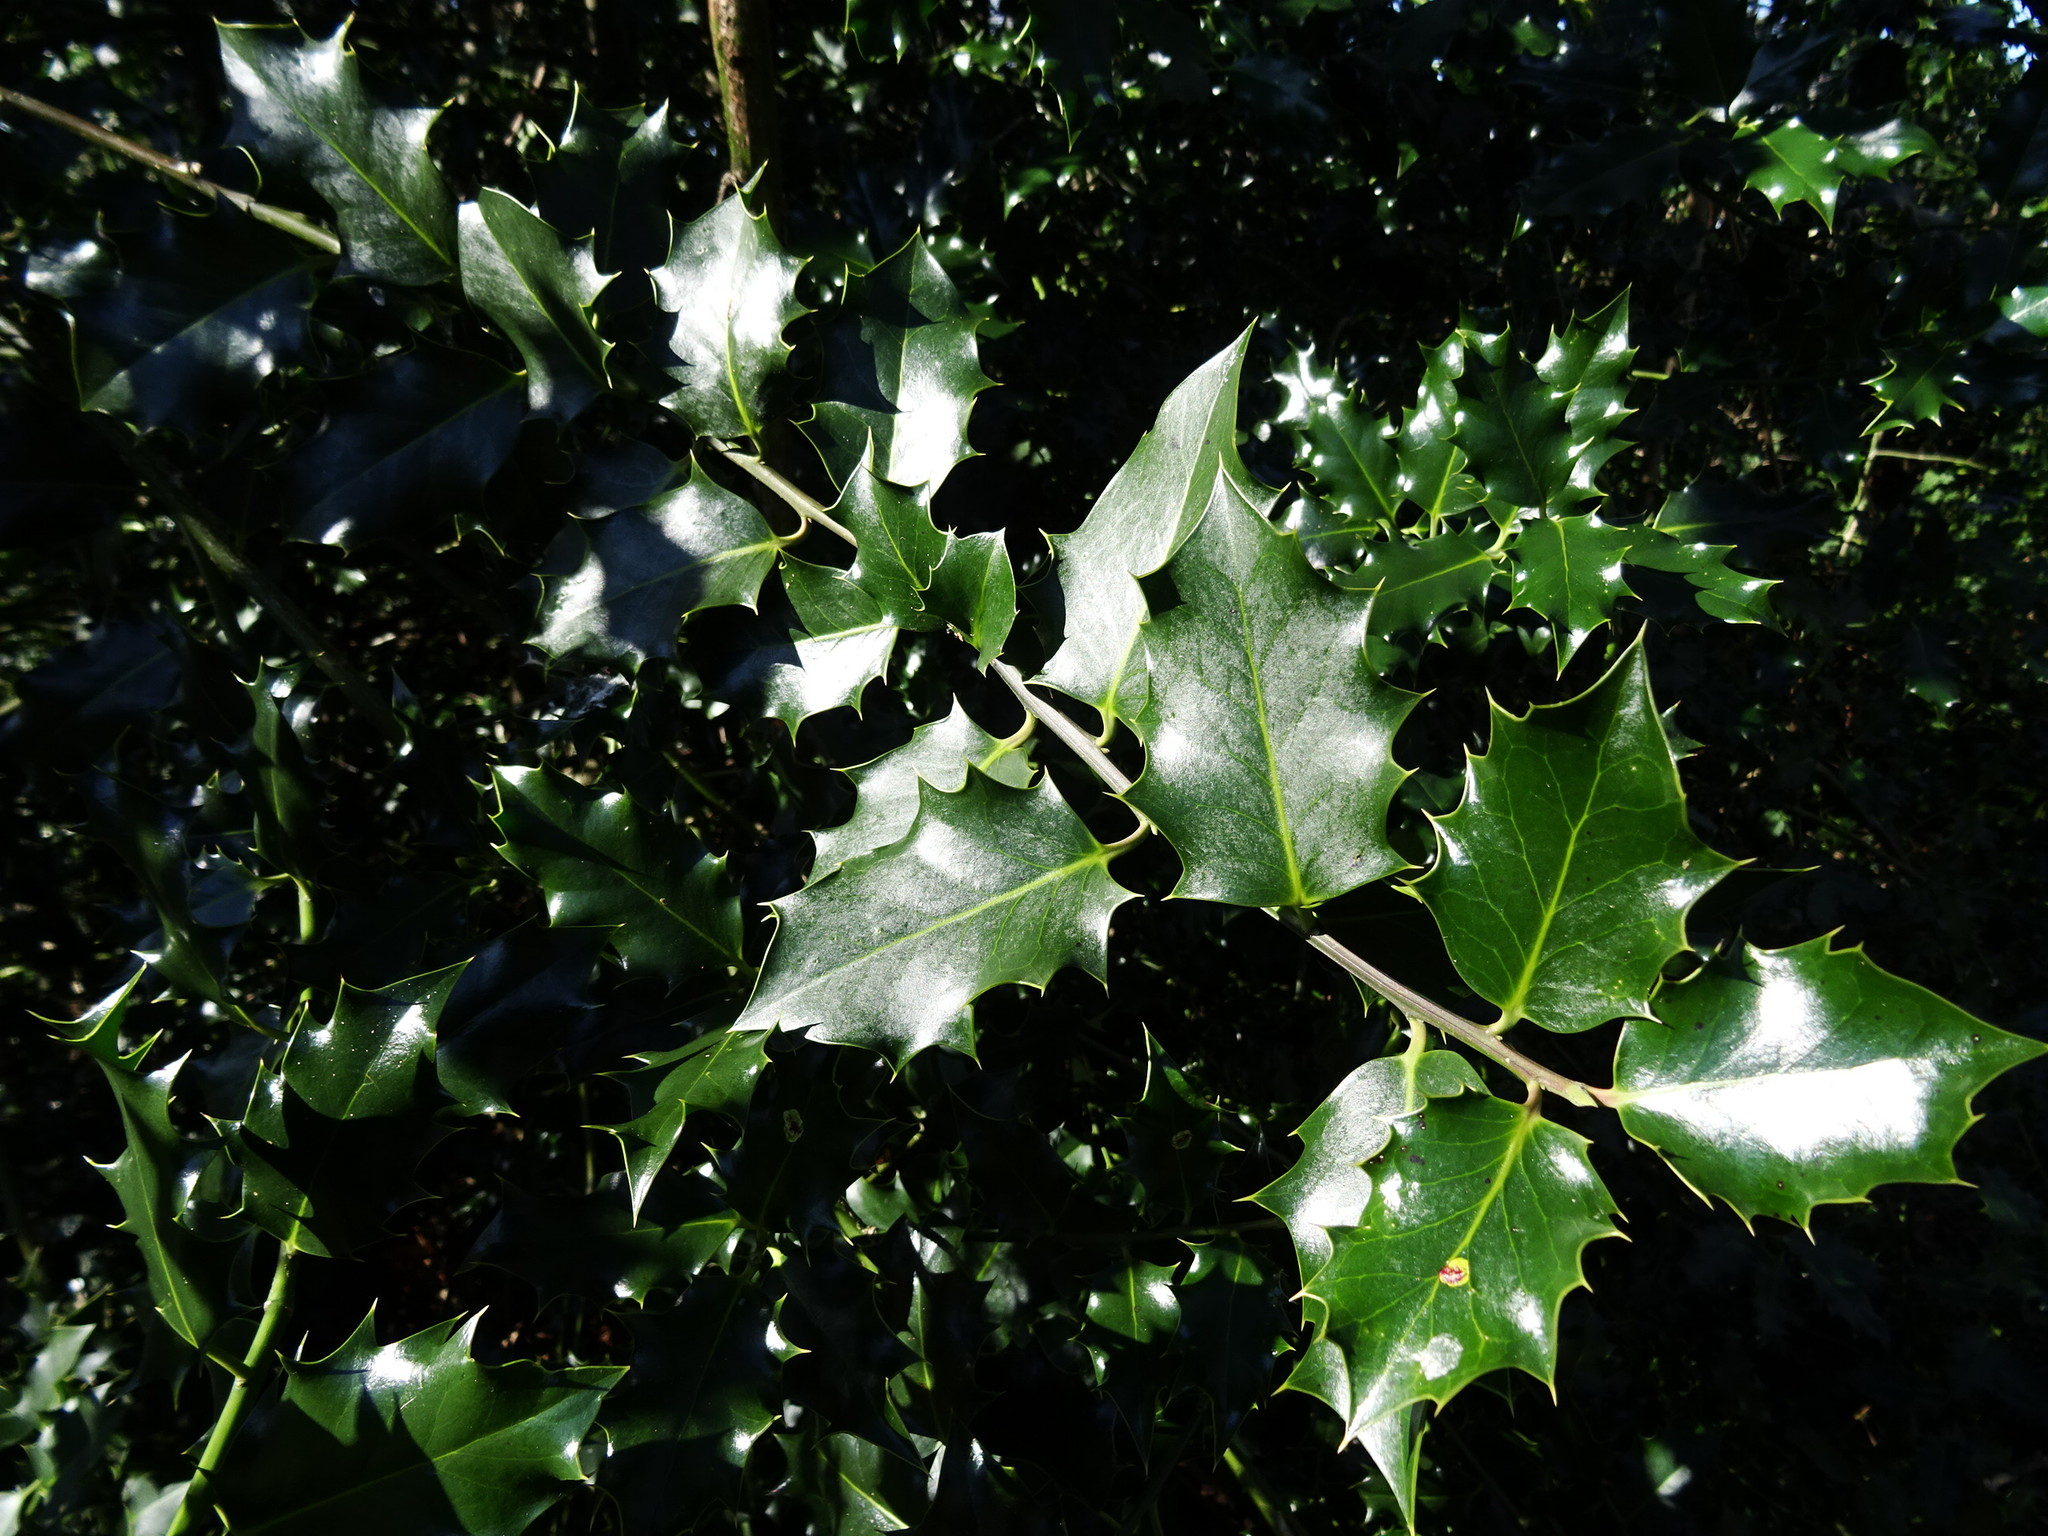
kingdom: Plantae
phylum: Tracheophyta
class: Magnoliopsida
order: Aquifoliales
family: Aquifoliaceae
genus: Ilex
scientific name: Ilex aquifolium
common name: English holly
